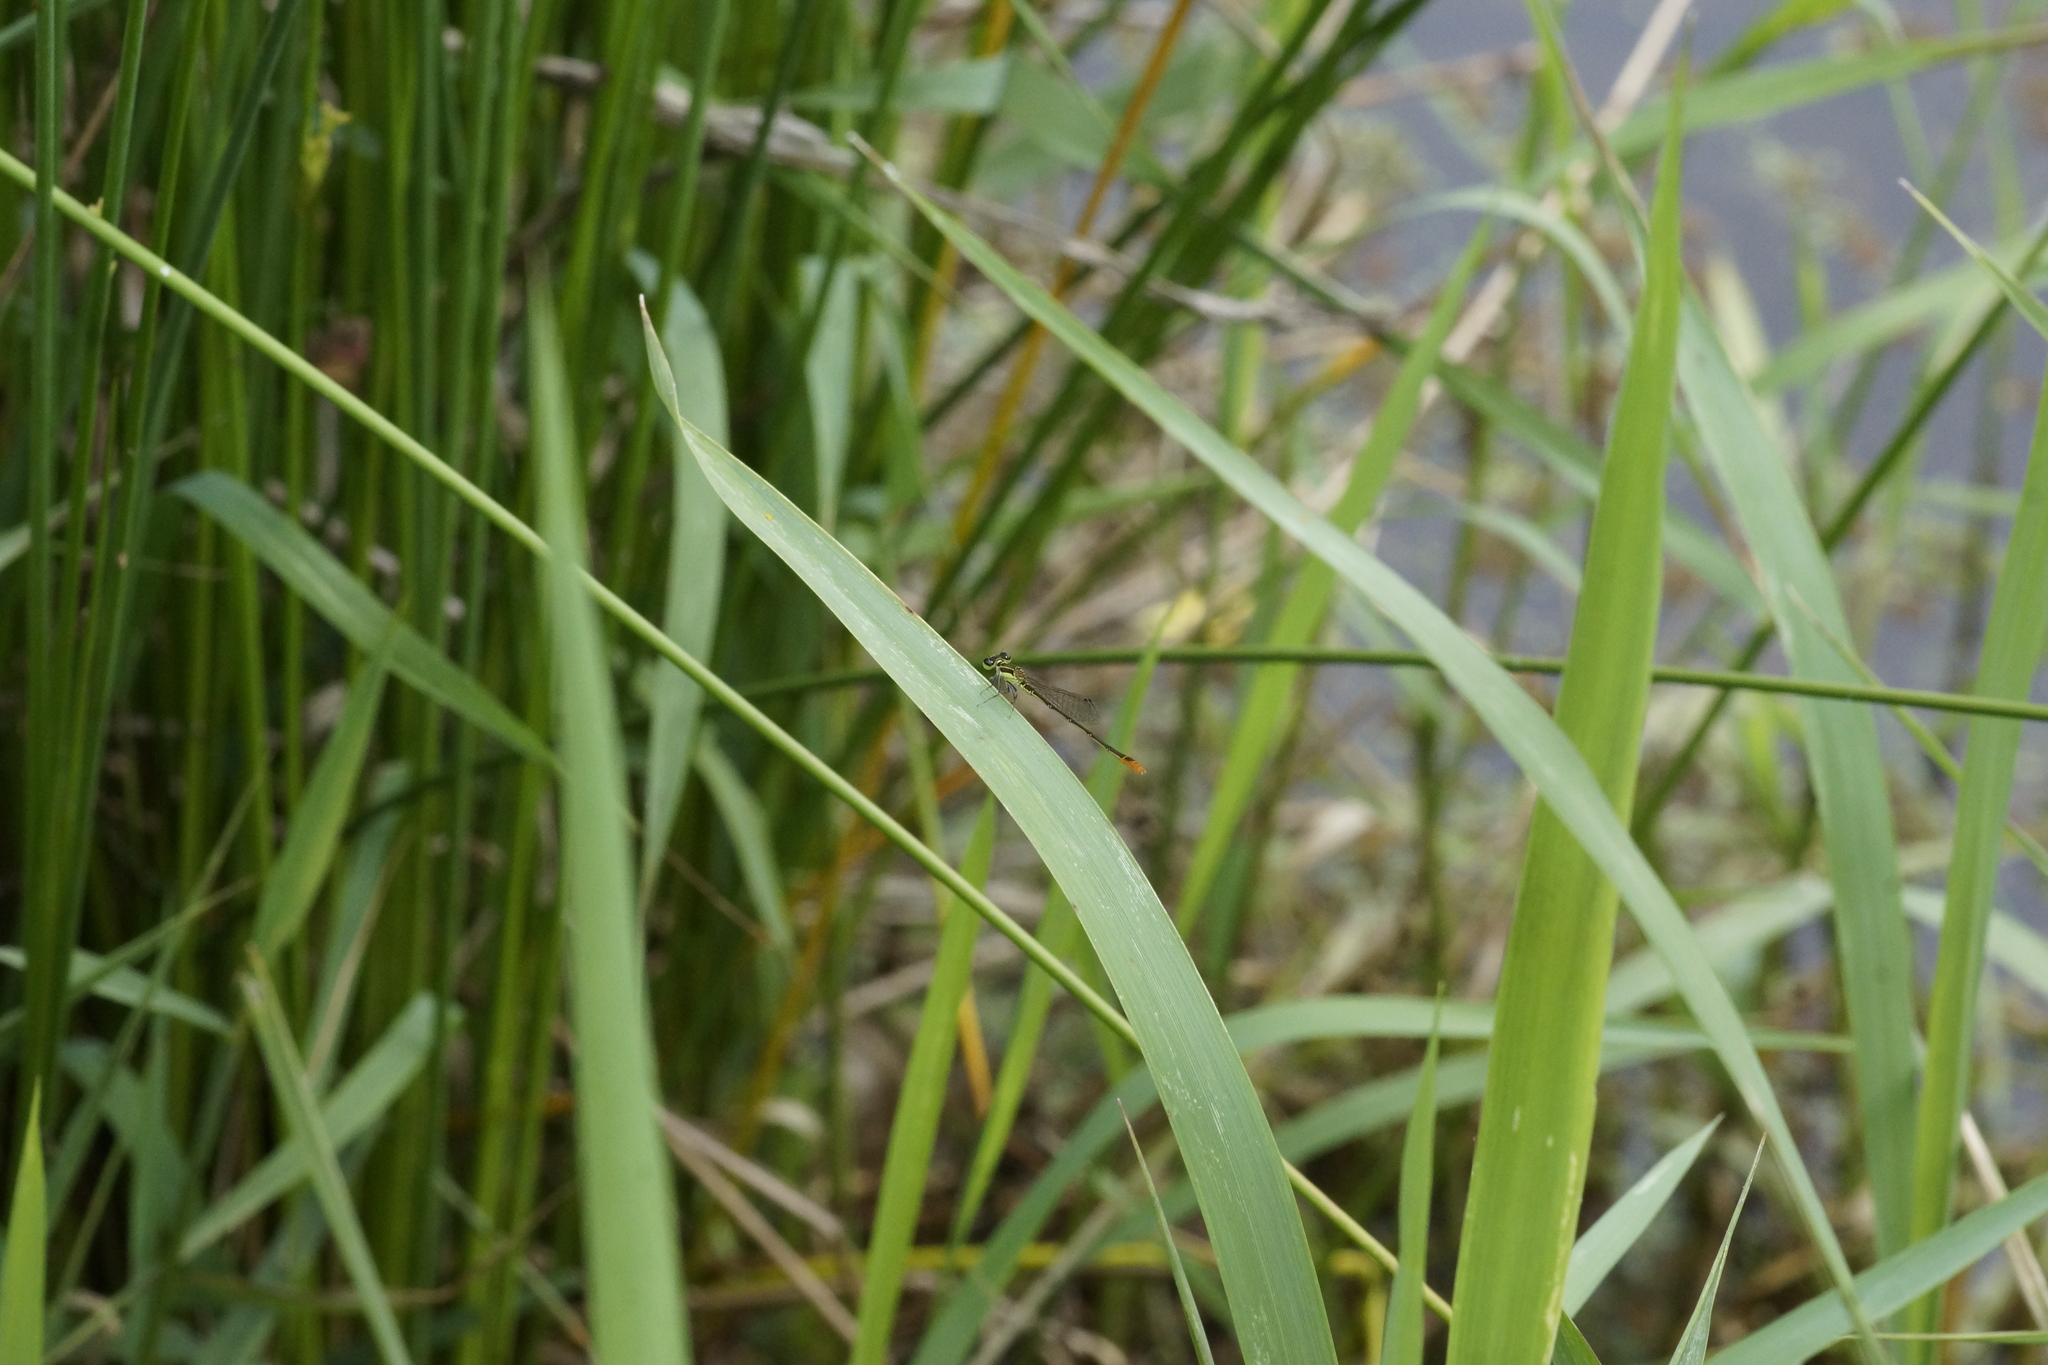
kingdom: Animalia
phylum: Arthropoda
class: Insecta
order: Odonata
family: Coenagrionidae
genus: Agriocnemis
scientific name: Agriocnemis pygmaea
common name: Pygmy wisp
